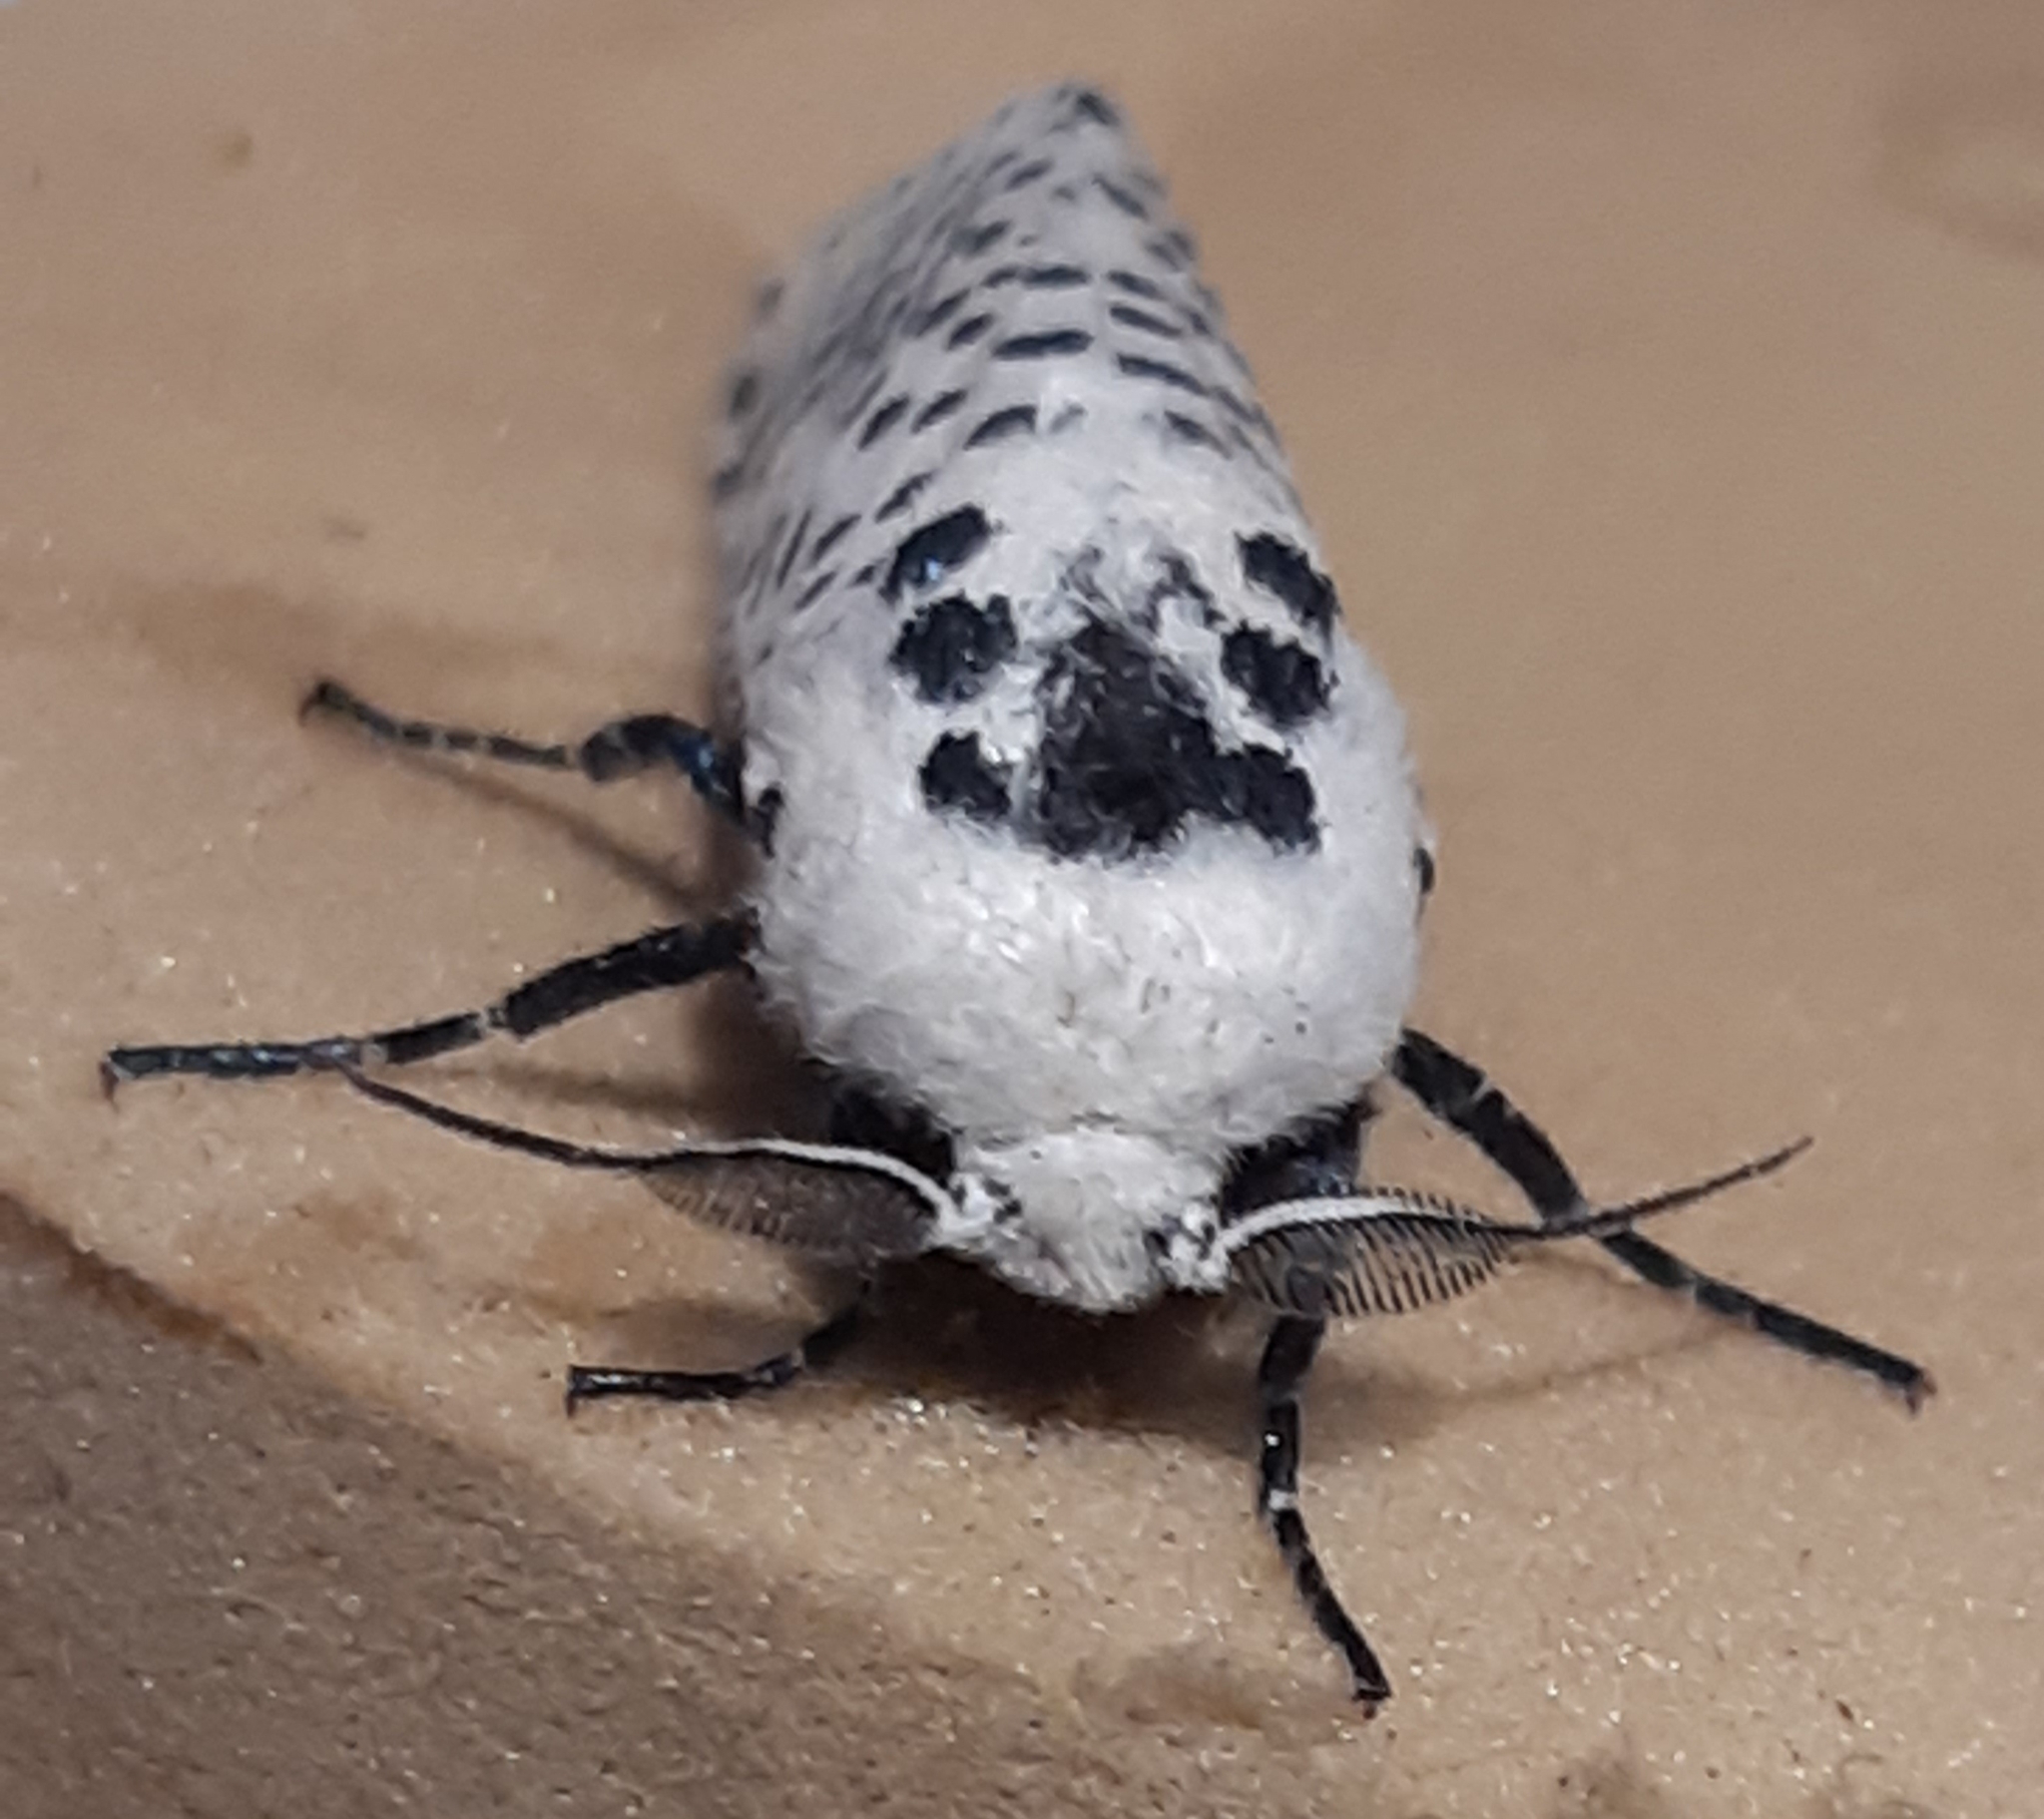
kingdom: Animalia
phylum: Arthropoda
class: Insecta
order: Lepidoptera
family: Cossidae
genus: Zeuzera
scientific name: Zeuzera pyrina
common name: Leopard moth
